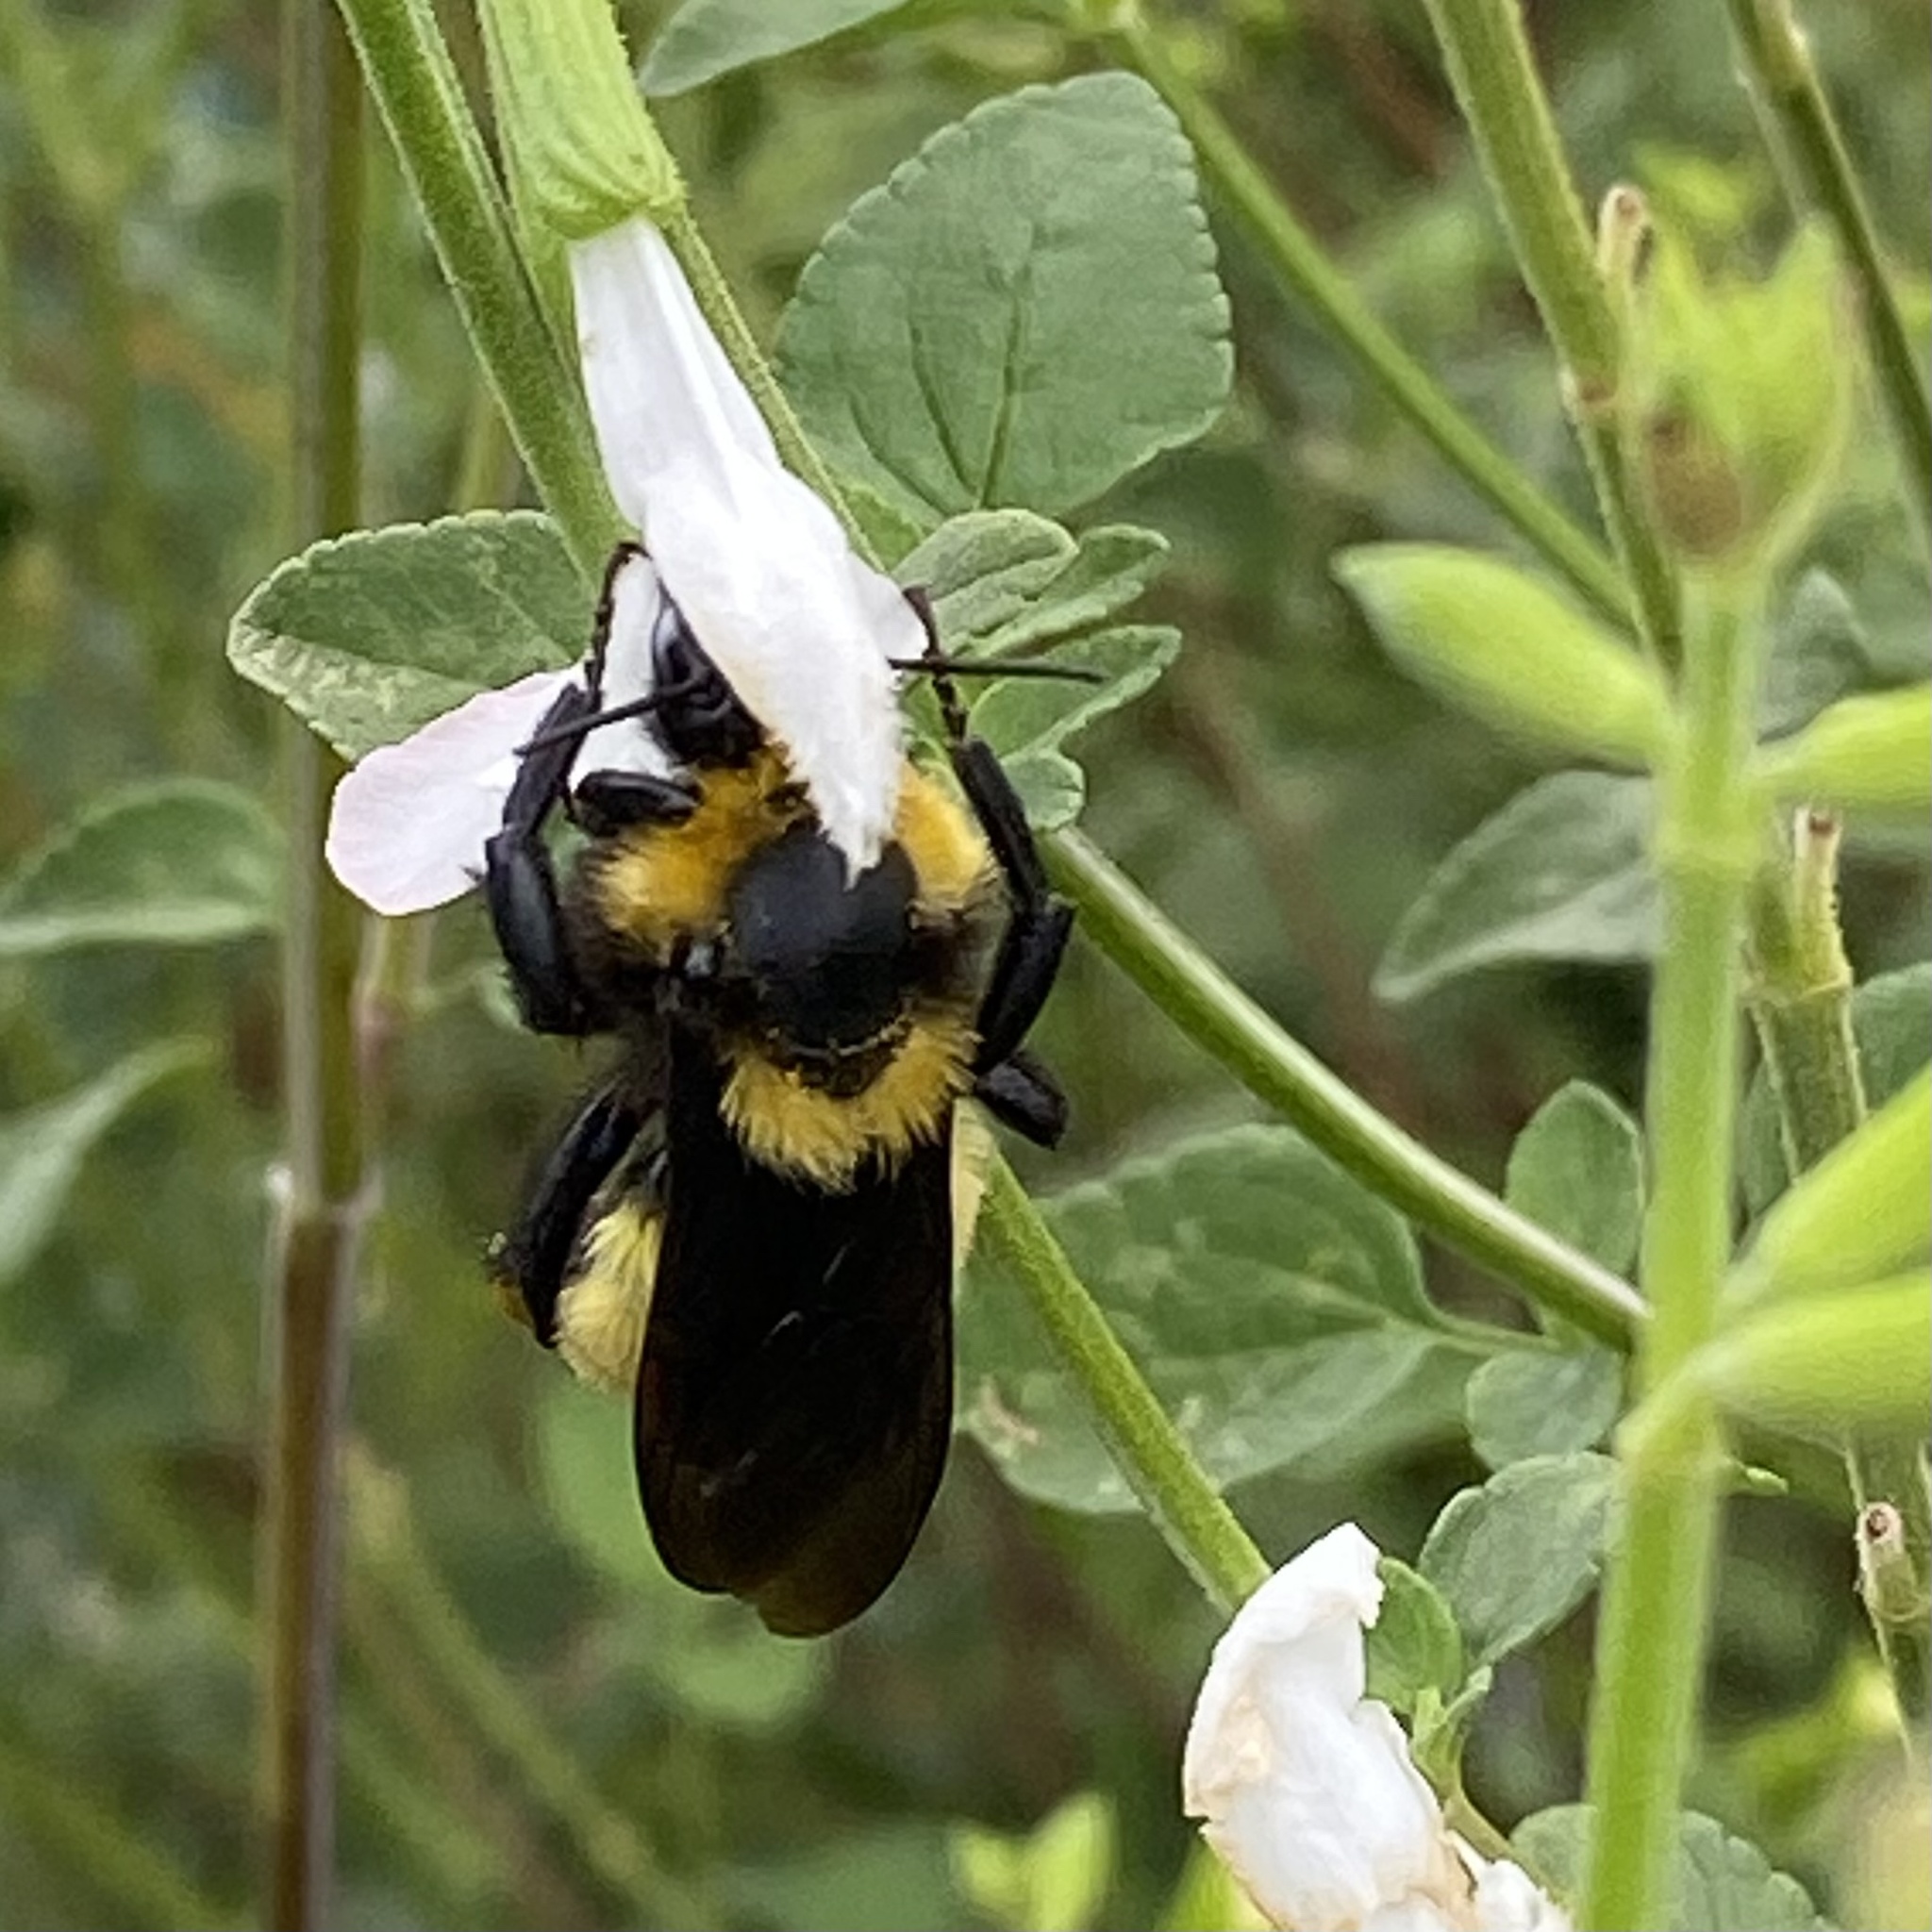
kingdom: Animalia
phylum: Arthropoda
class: Insecta
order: Hymenoptera
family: Apidae
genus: Bombus
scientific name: Bombus sonorus
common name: Sonoran bumble bee
